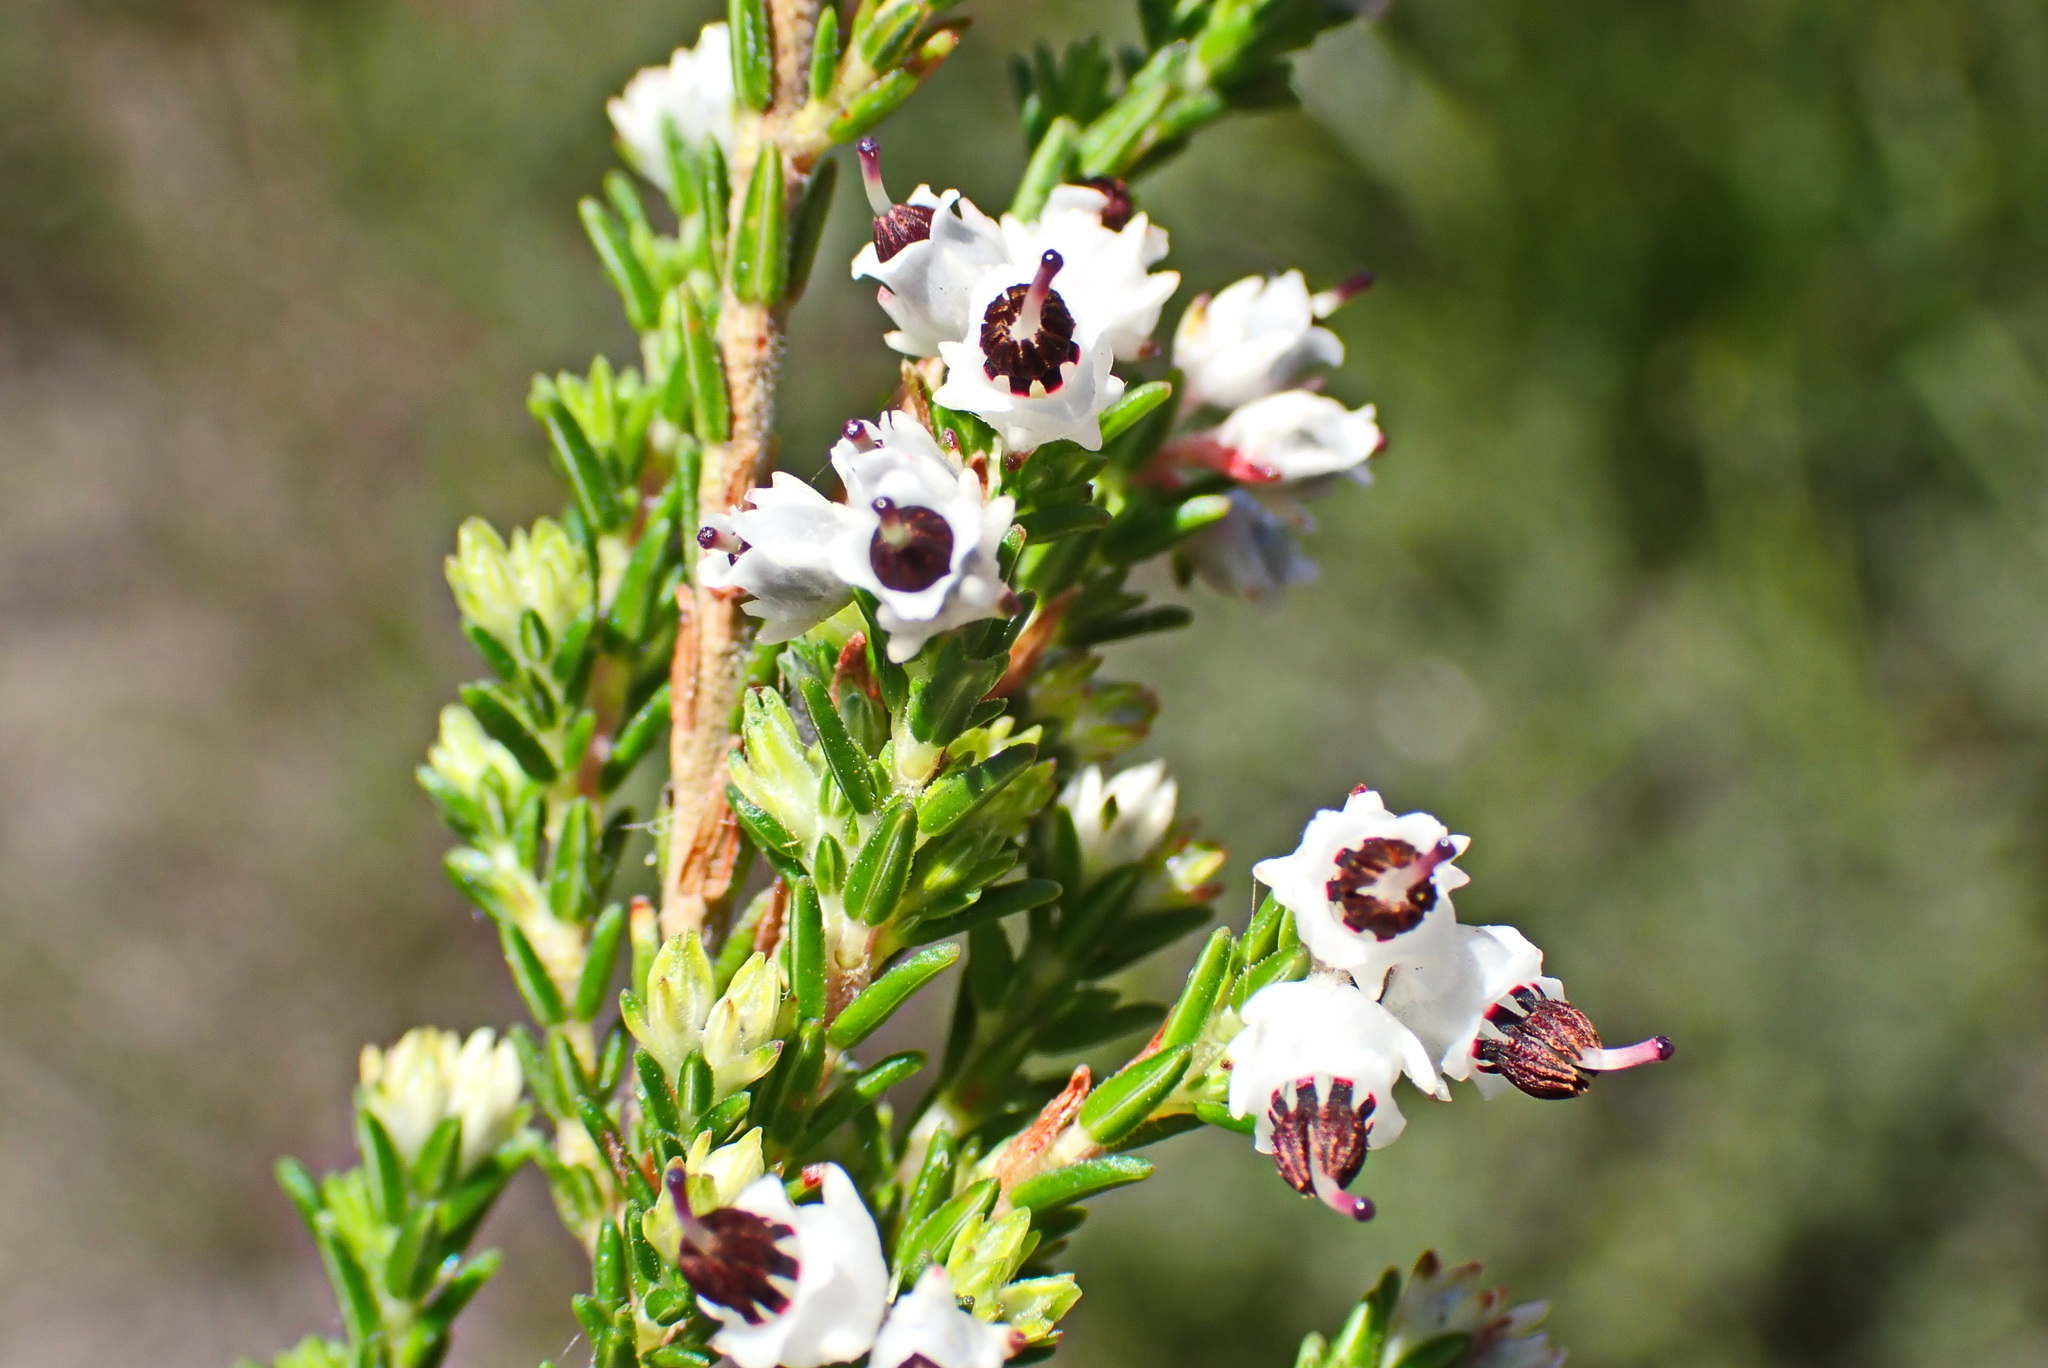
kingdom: Plantae
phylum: Tracheophyta
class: Magnoliopsida
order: Ericales
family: Ericaceae
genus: Erica
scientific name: Erica triceps
